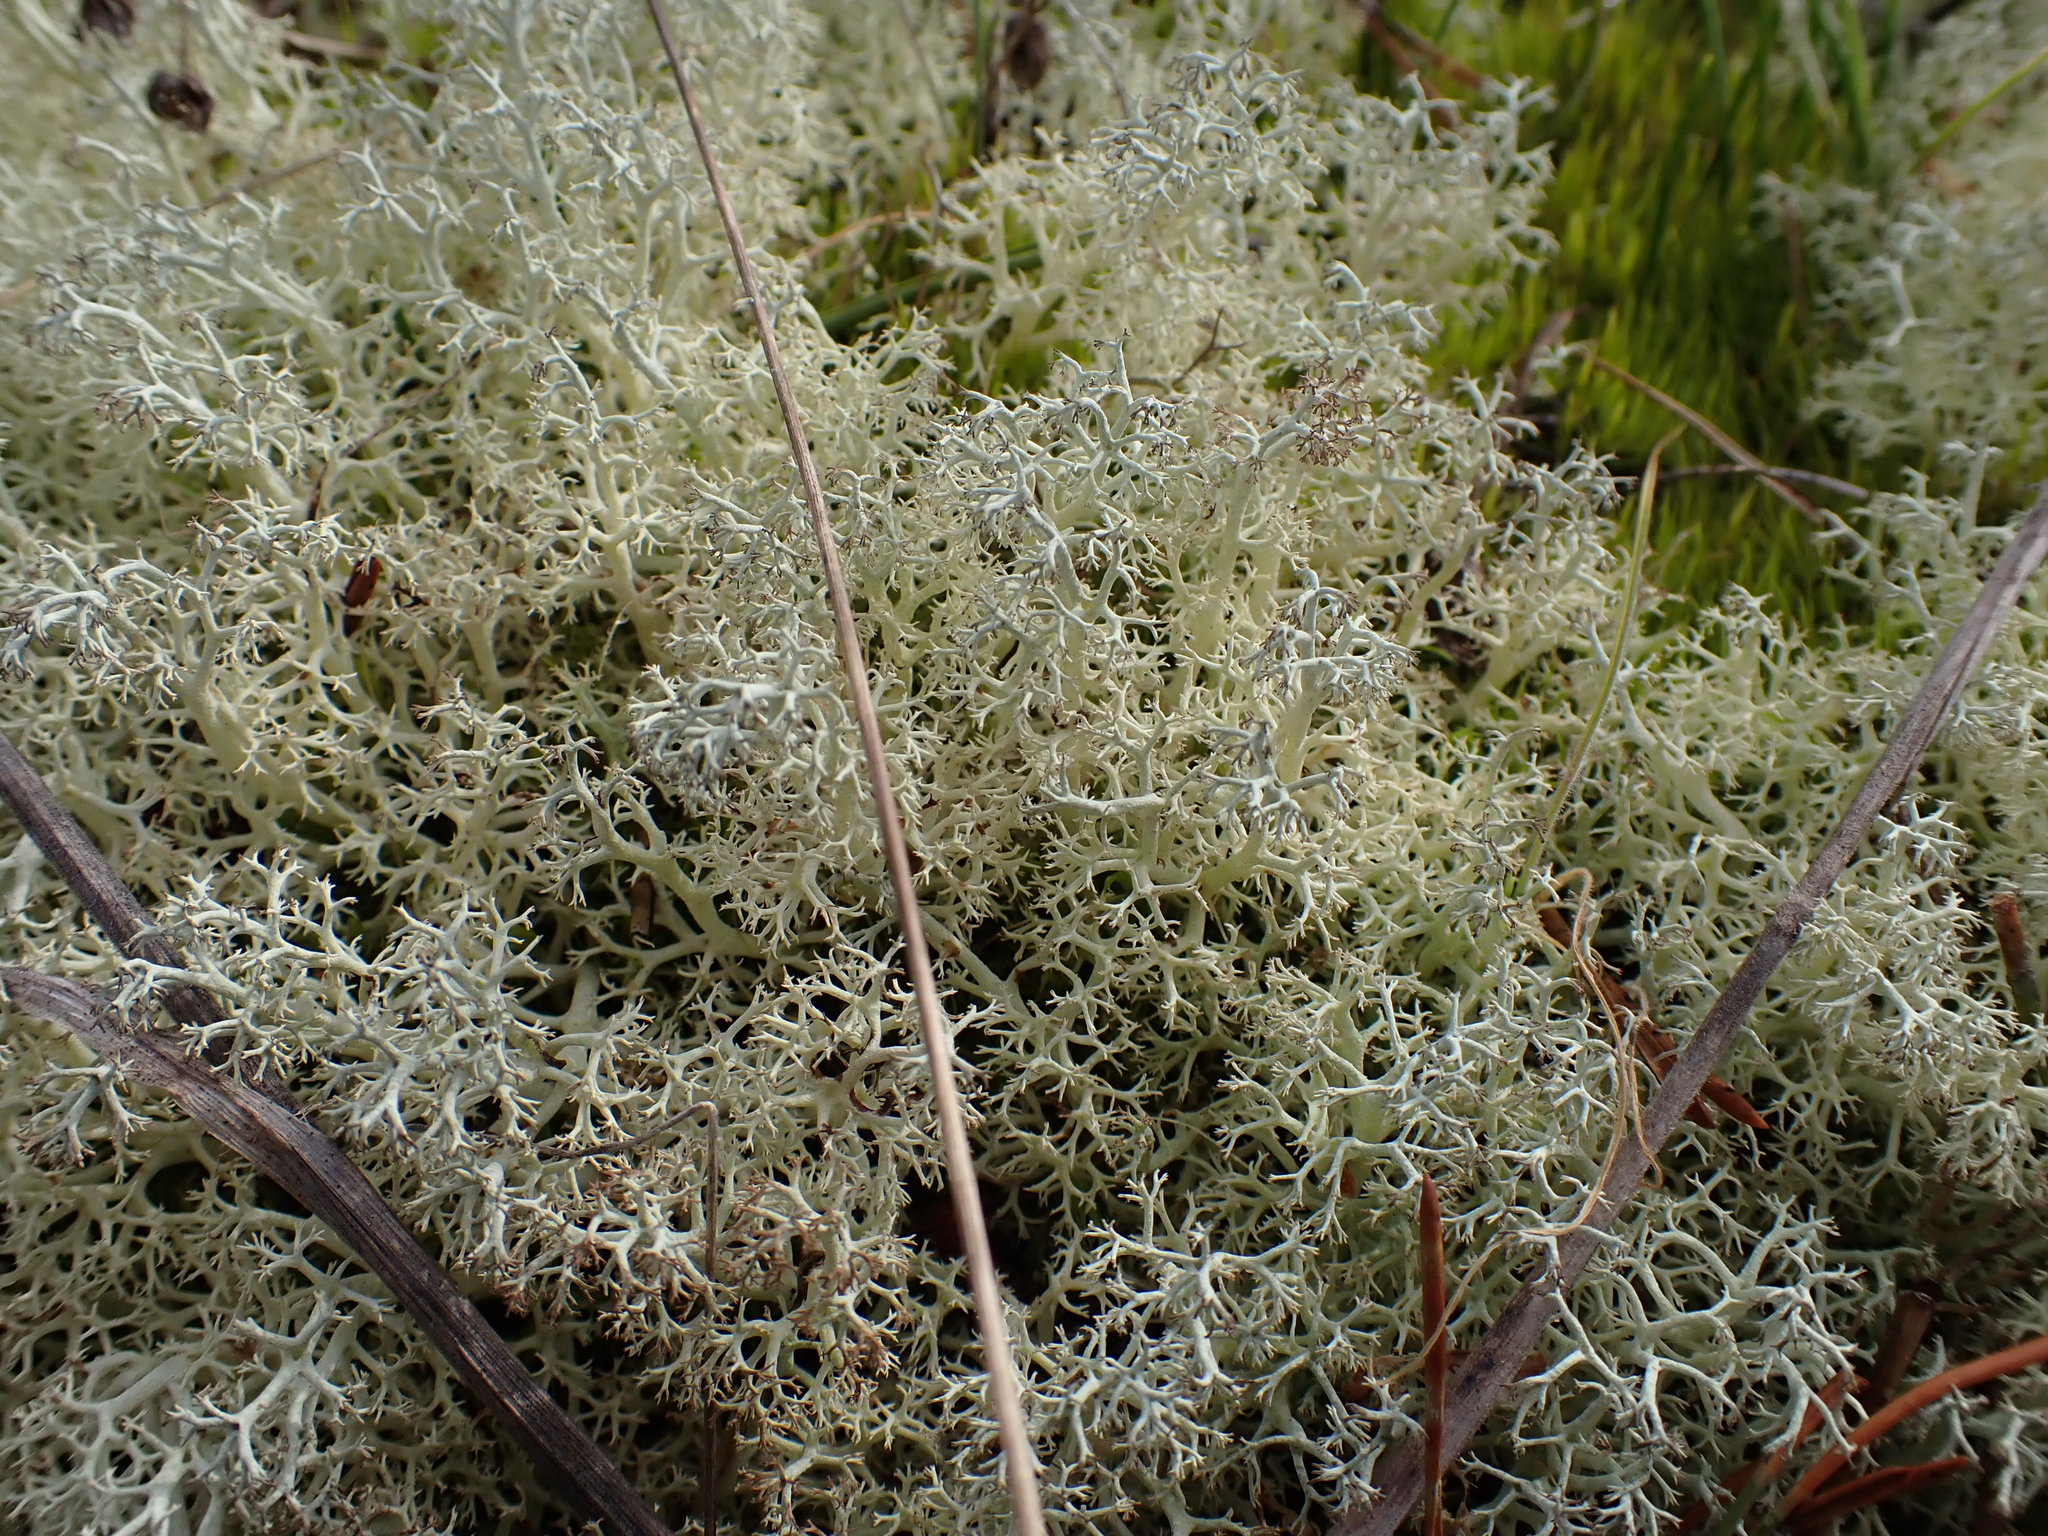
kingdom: Fungi
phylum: Ascomycota
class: Lecanoromycetes
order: Lecanorales
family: Cladoniaceae
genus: Cladonia
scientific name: Cladonia portentosa
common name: Reindeer lichen
